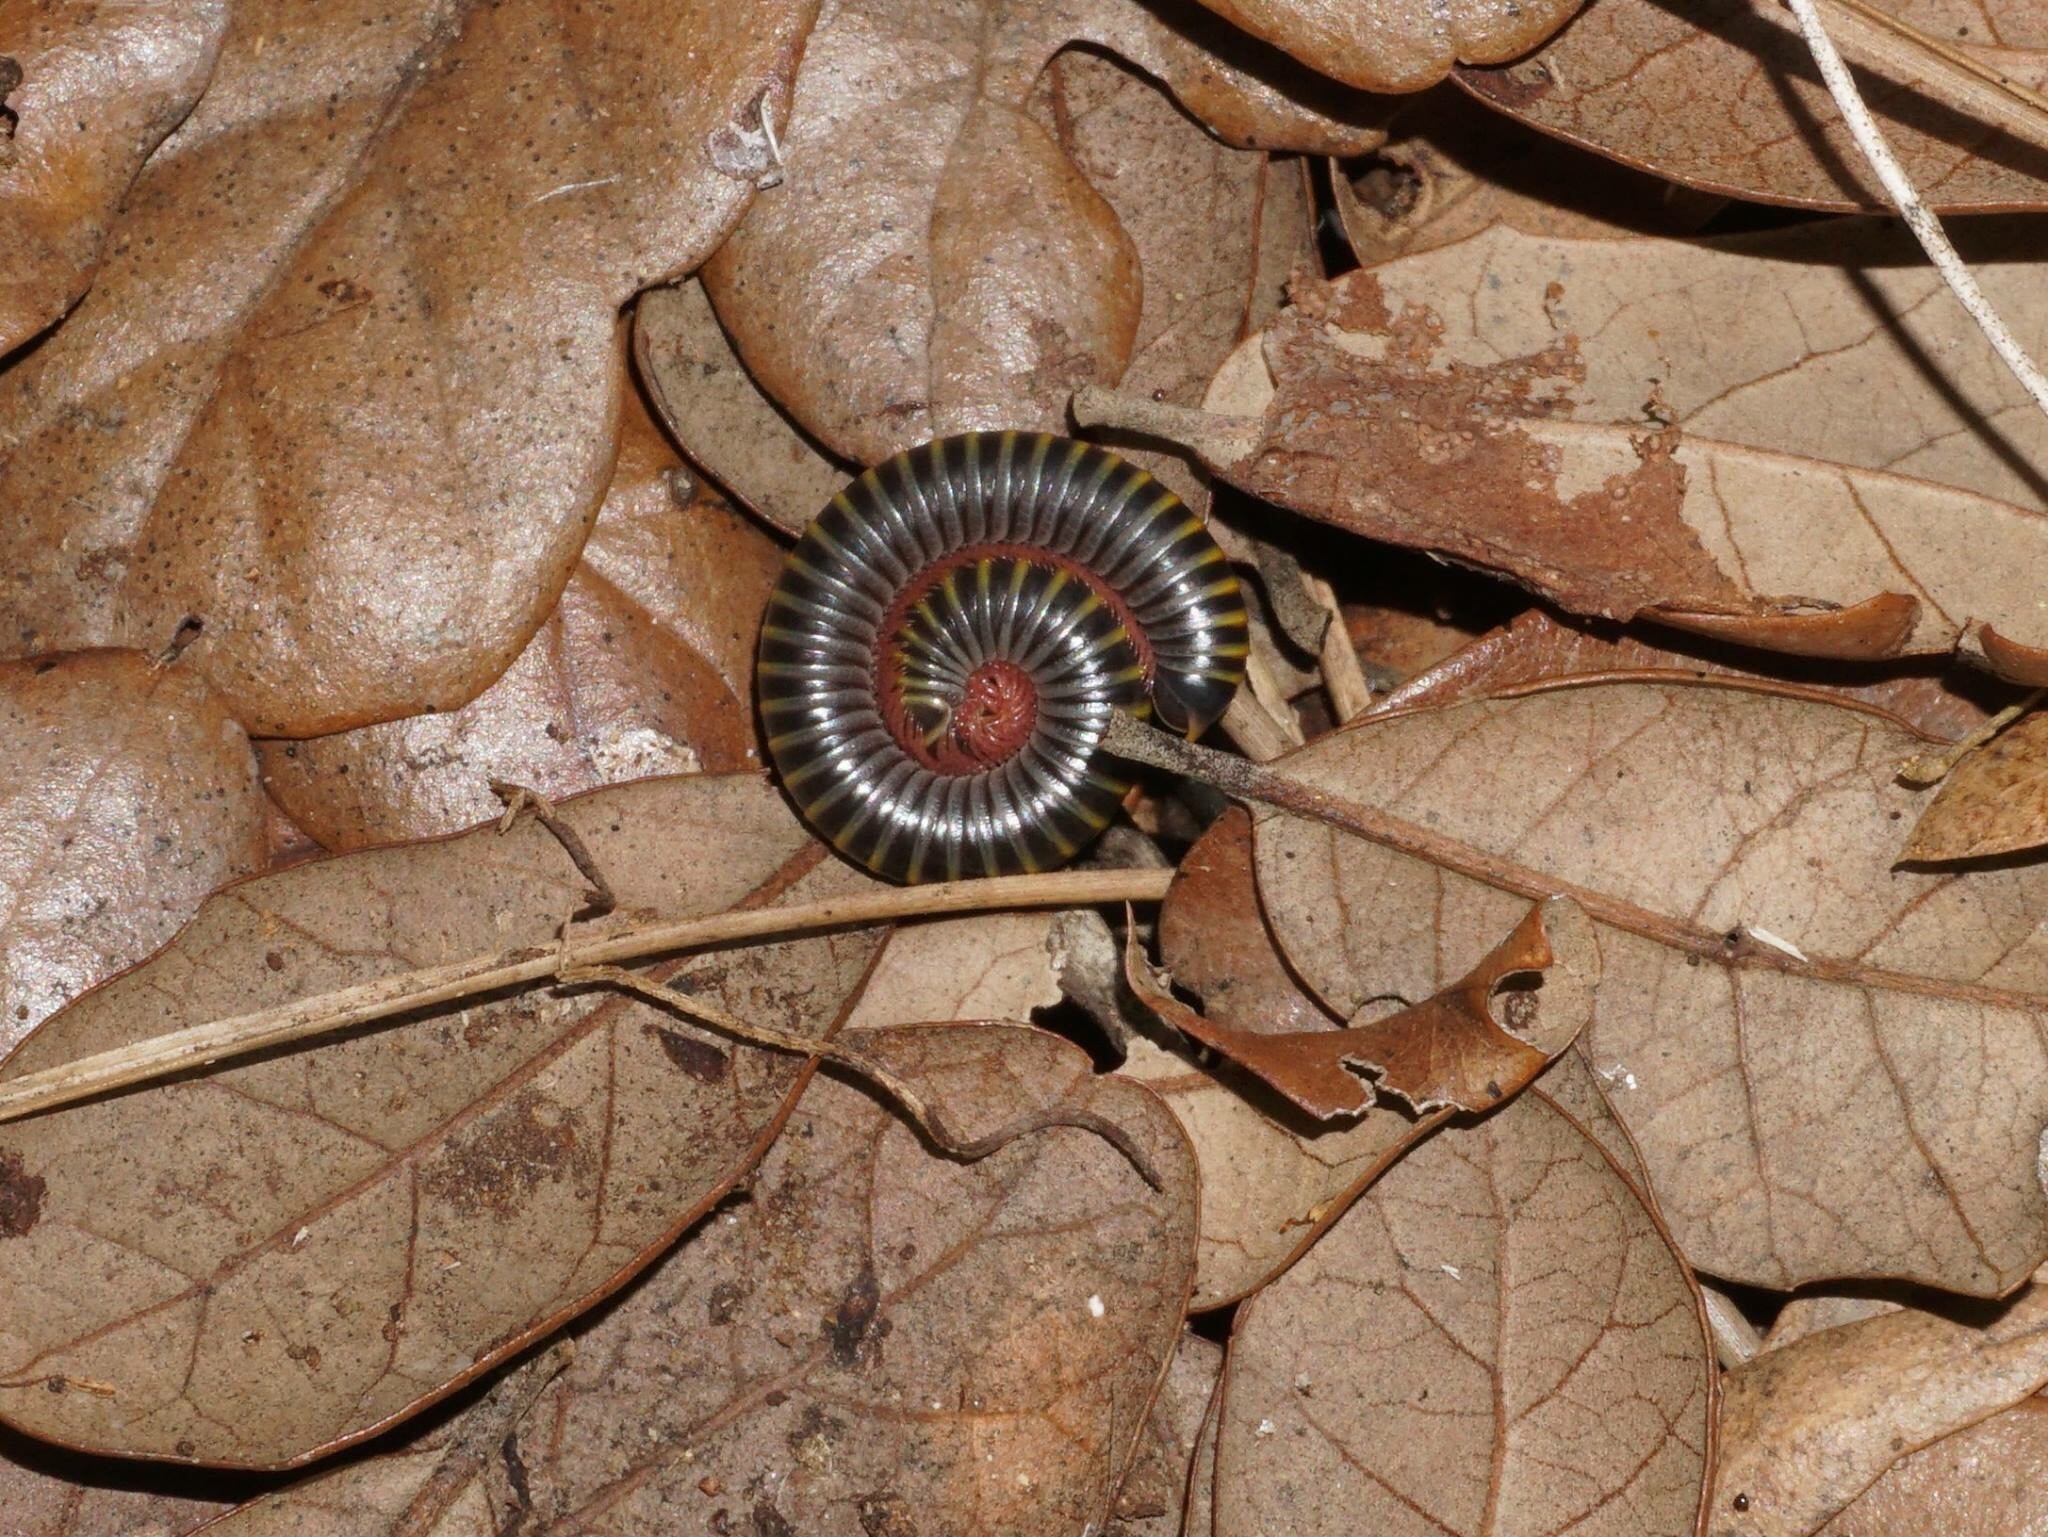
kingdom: Animalia
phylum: Arthropoda
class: Diplopoda
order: Spirobolida
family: Rhinocricidae
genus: Anadenobolus
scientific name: Anadenobolus monilicornis
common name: Caribbean millipede
